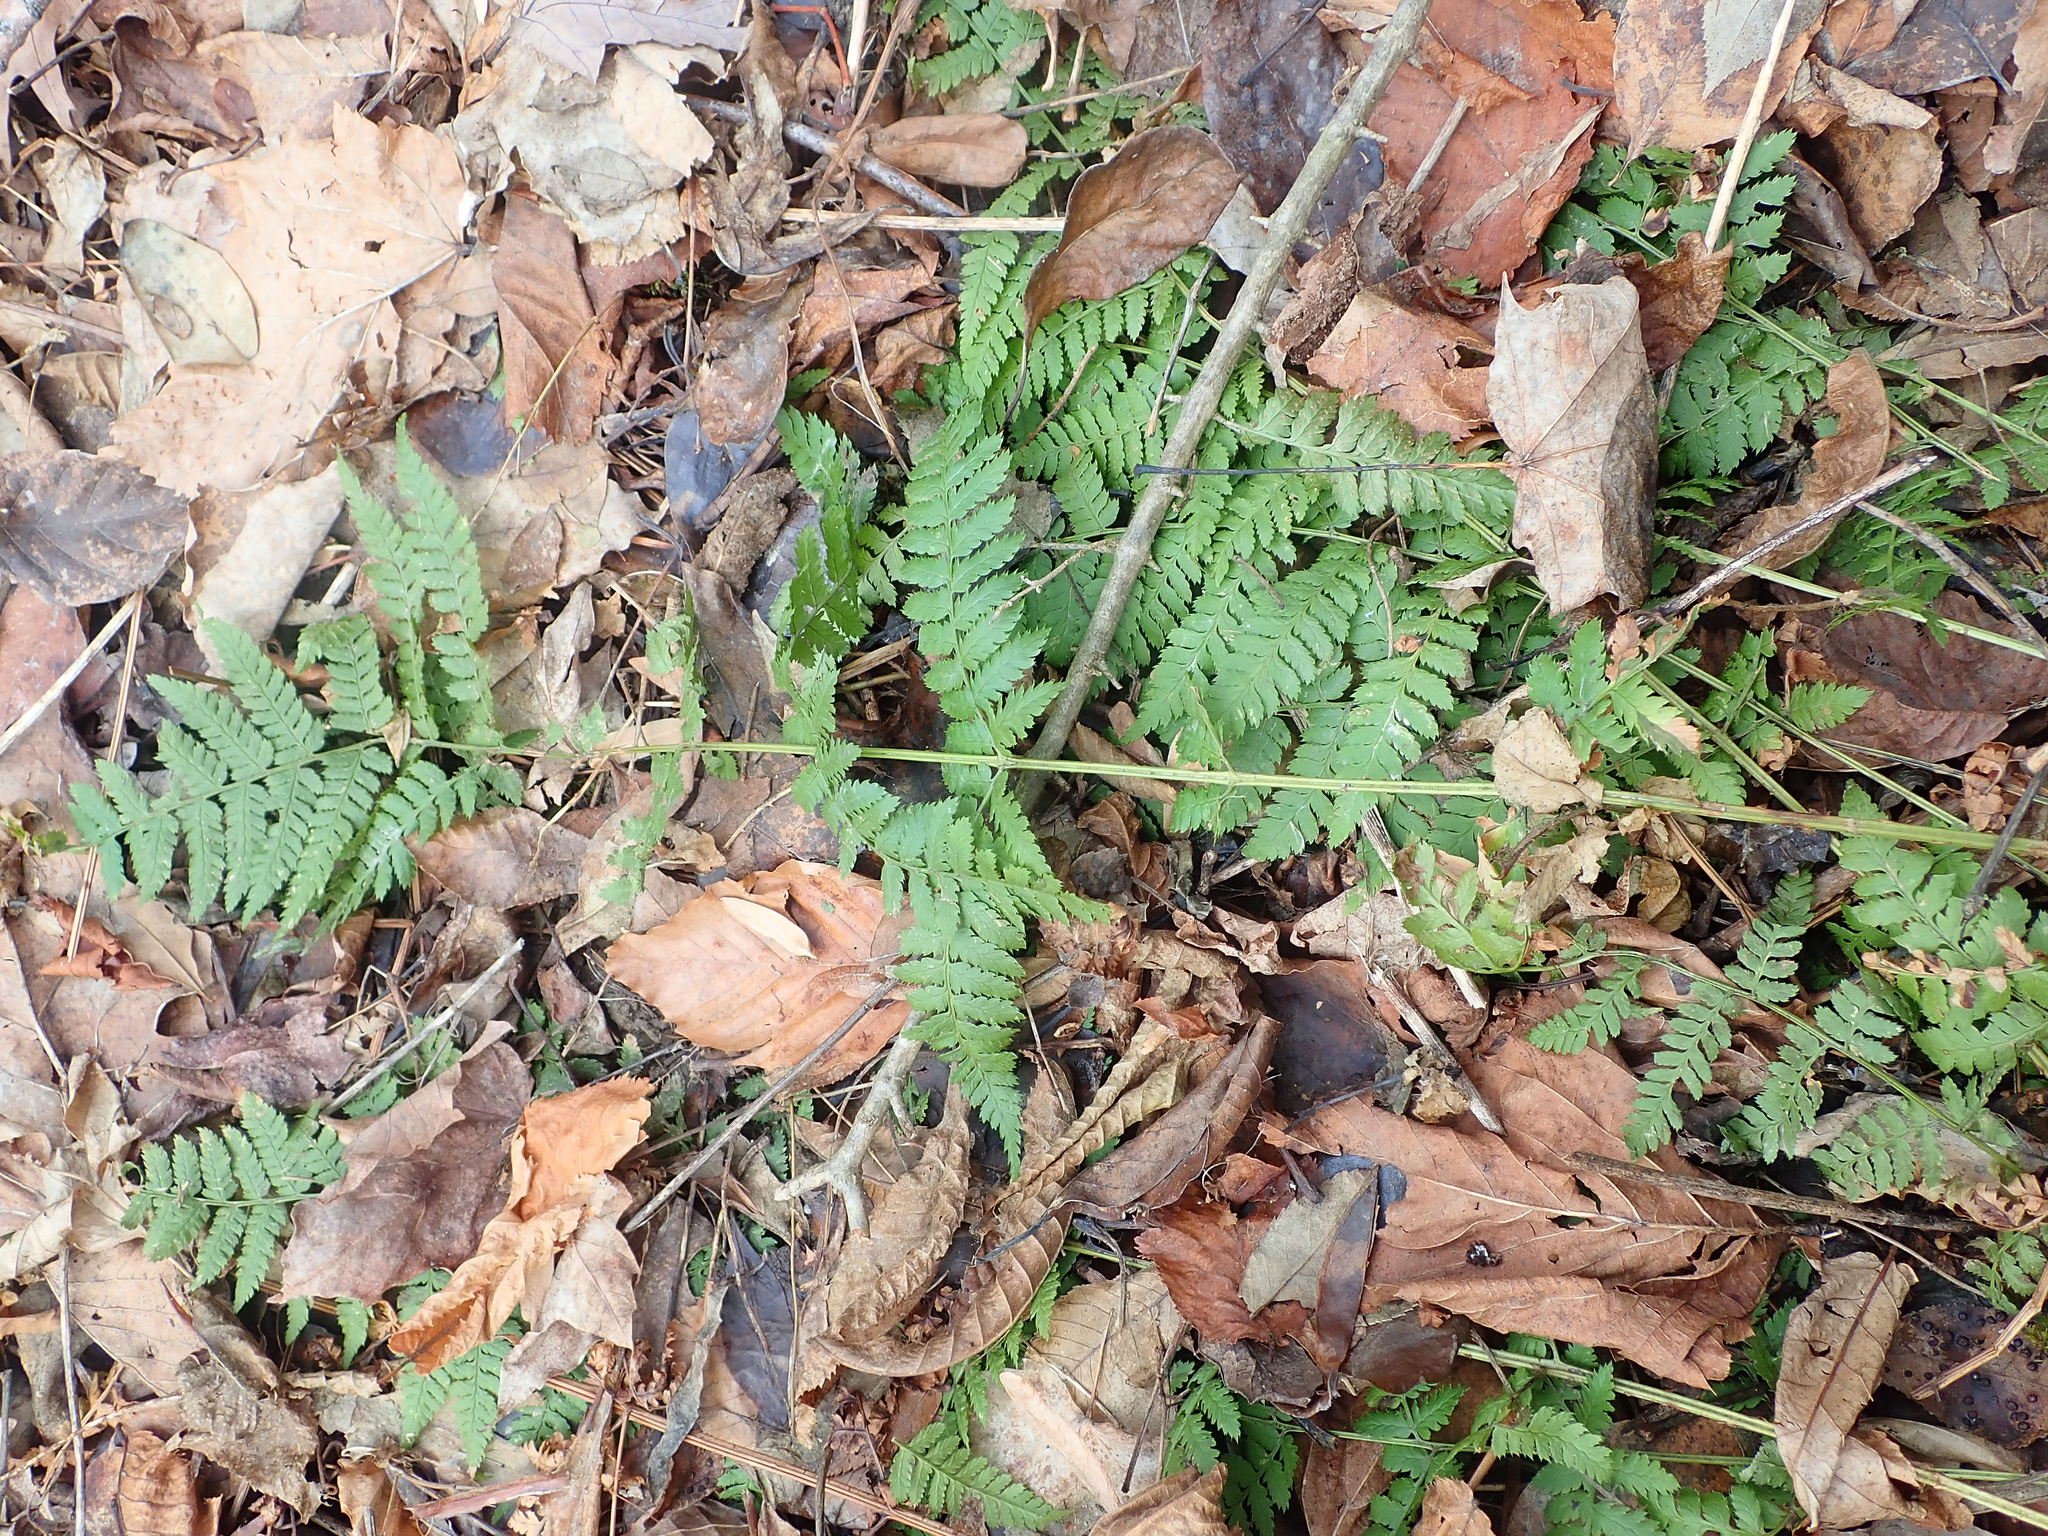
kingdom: Plantae
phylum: Tracheophyta
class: Polypodiopsida
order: Polypodiales
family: Dryopteridaceae
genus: Dryopteris
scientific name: Dryopteris intermedia
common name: Evergreen wood fern
